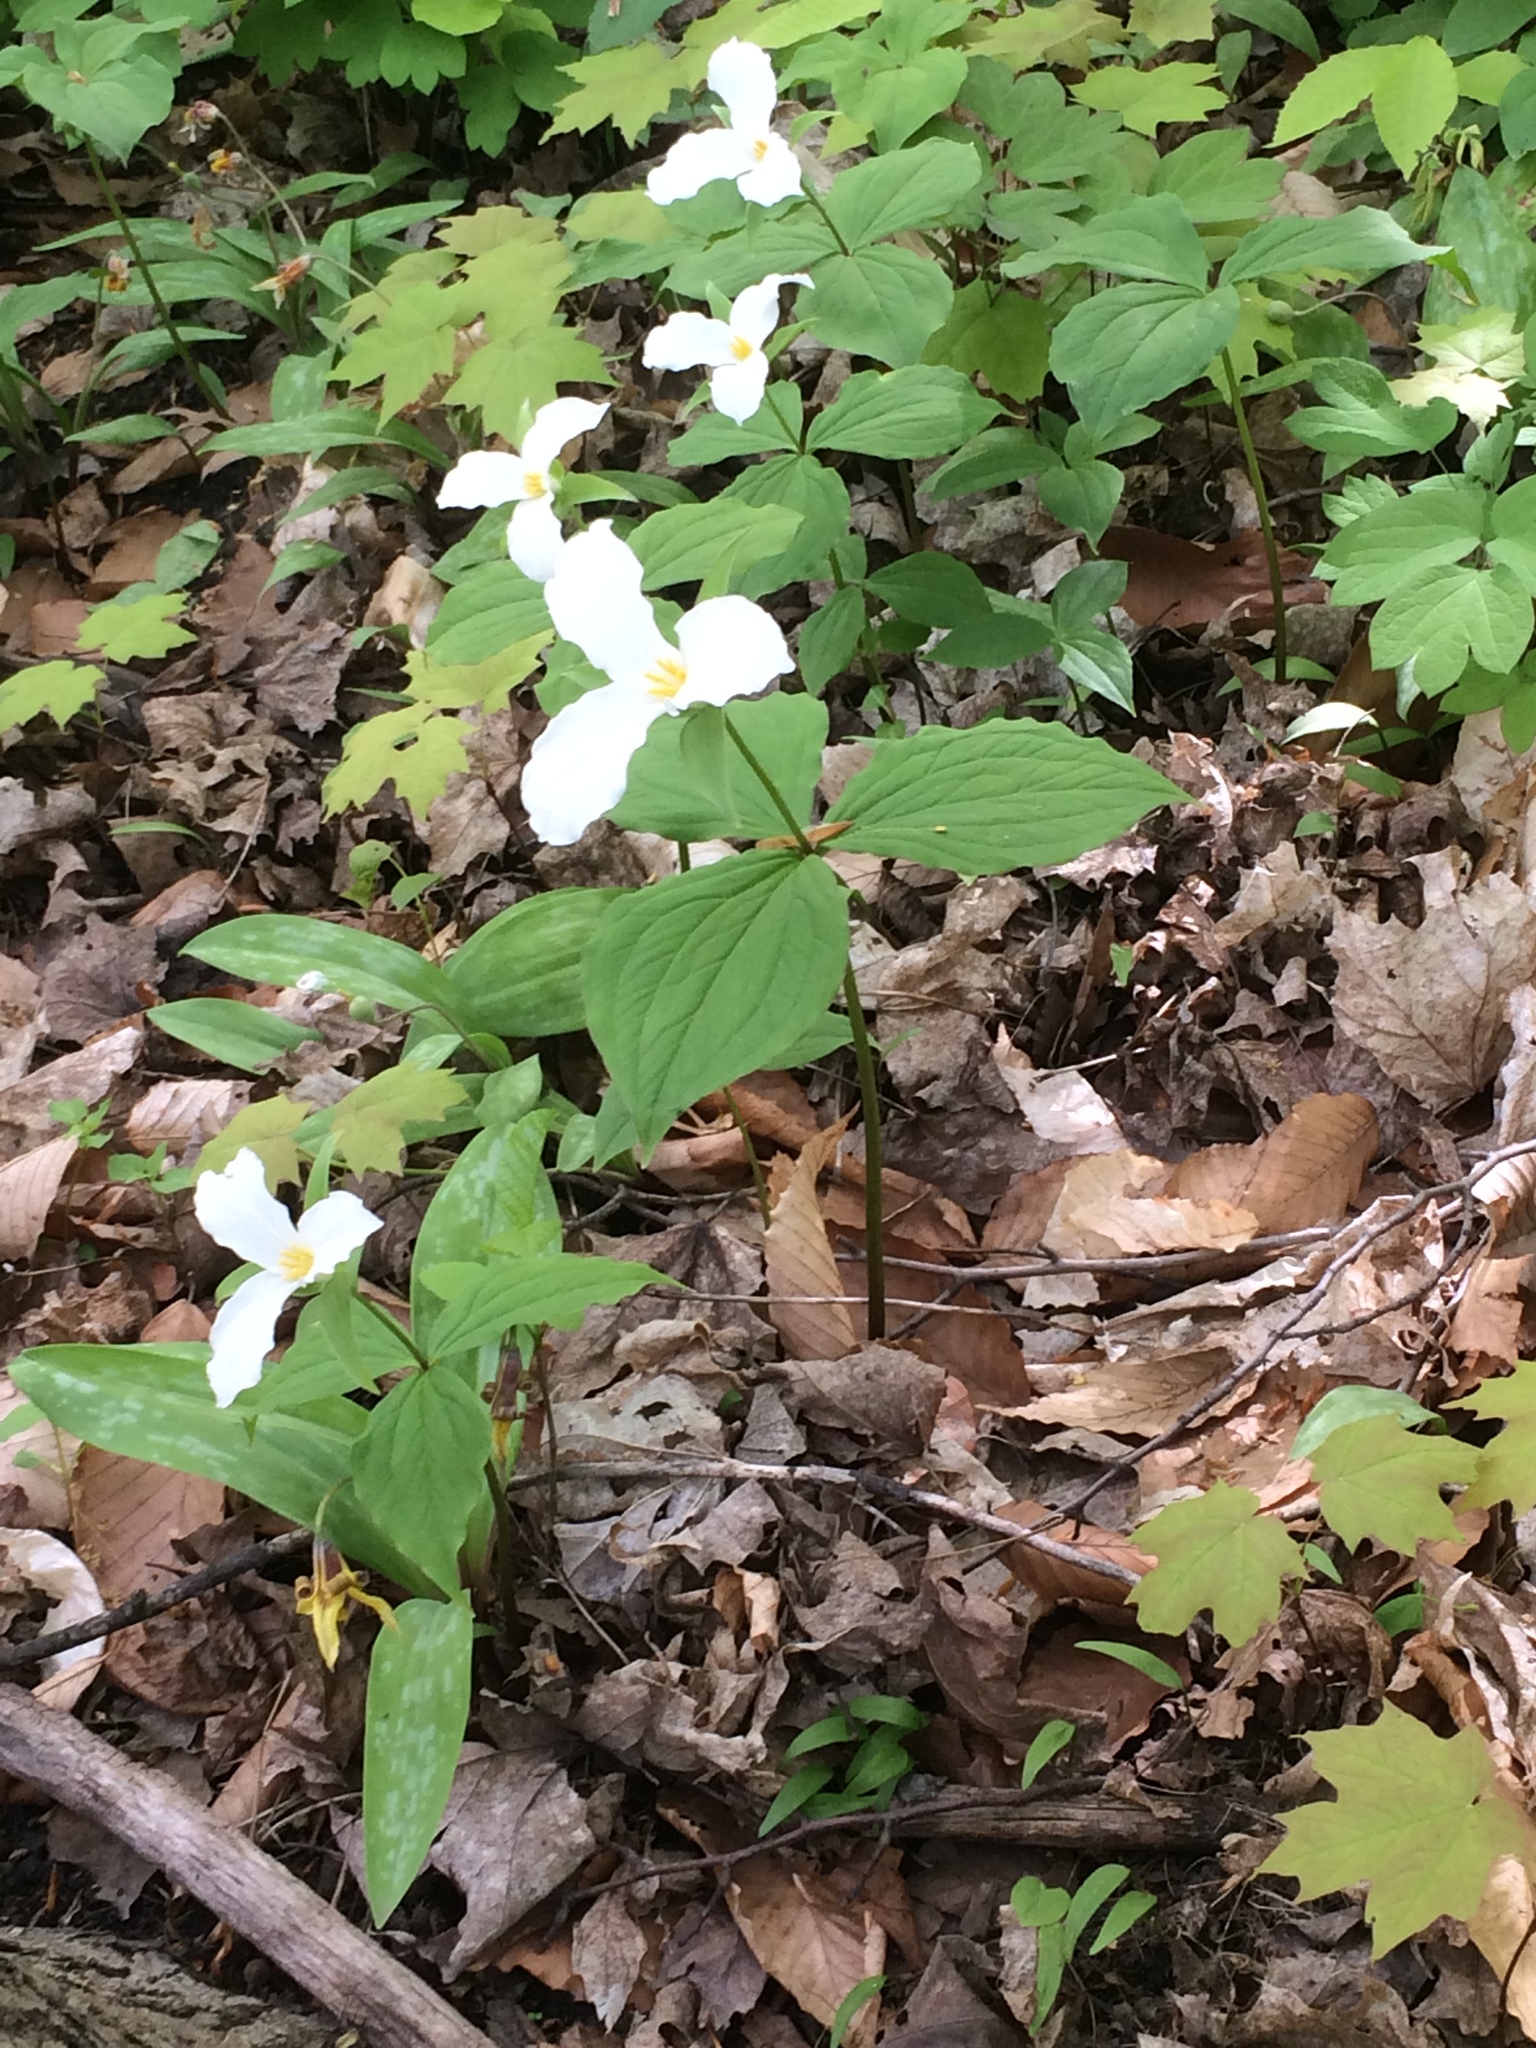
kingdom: Plantae
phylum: Tracheophyta
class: Liliopsida
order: Liliales
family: Melanthiaceae
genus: Trillium
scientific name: Trillium grandiflorum
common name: Great white trillium
